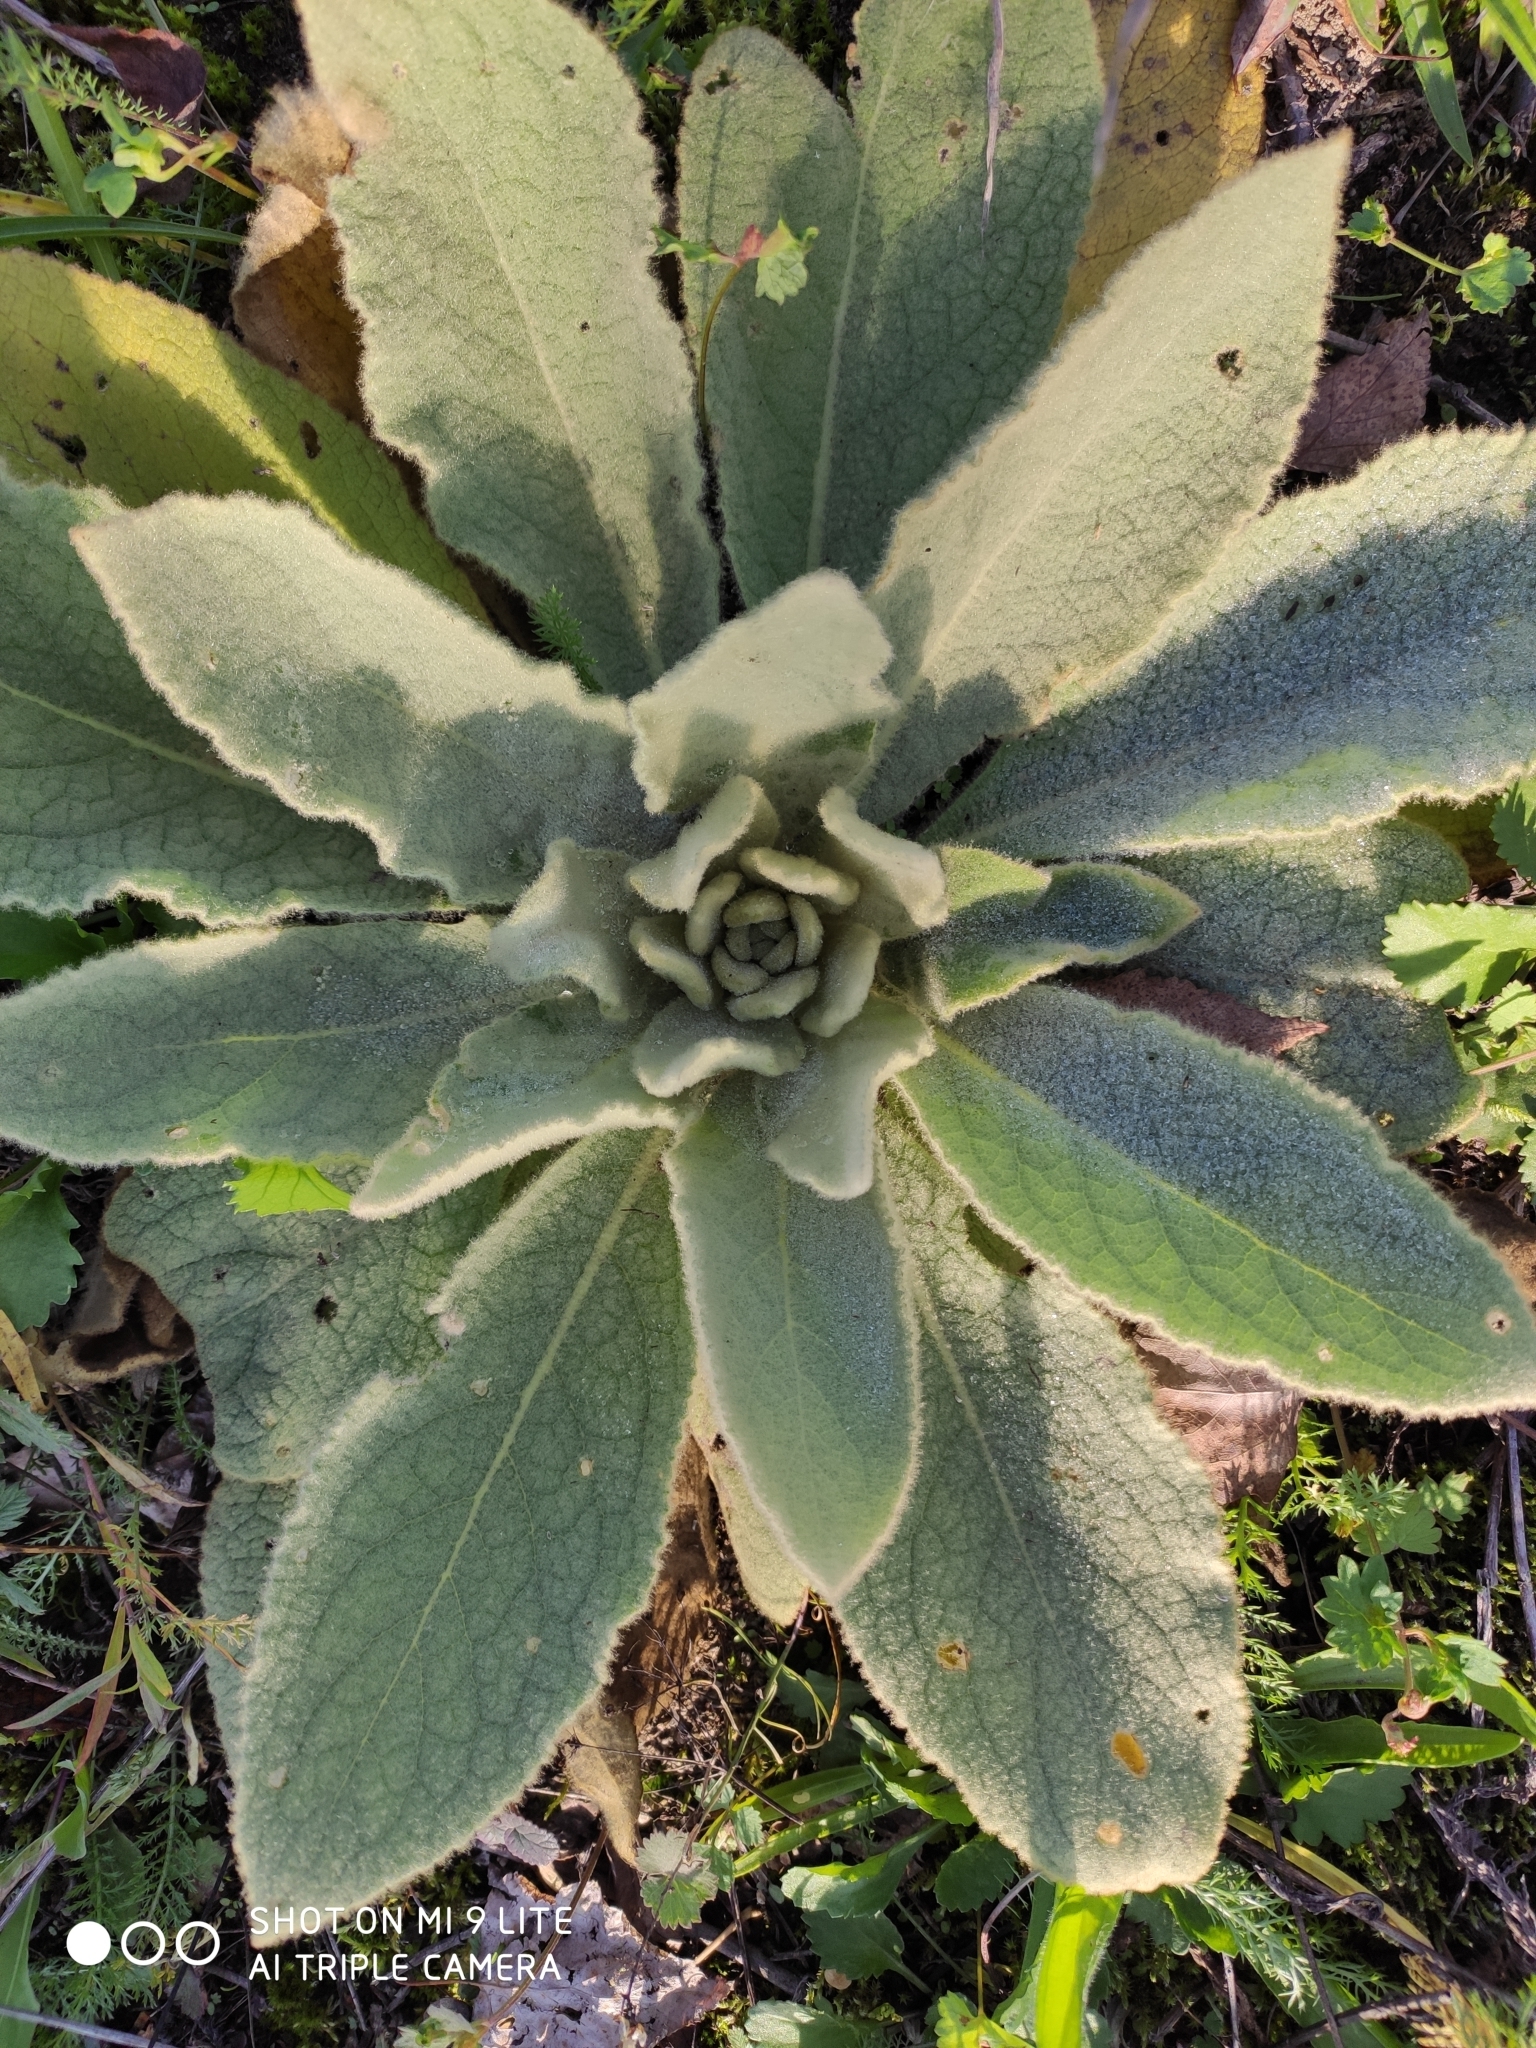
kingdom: Plantae
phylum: Tracheophyta
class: Magnoliopsida
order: Lamiales
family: Scrophulariaceae
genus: Verbascum
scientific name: Verbascum thapsus
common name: Common mullein
